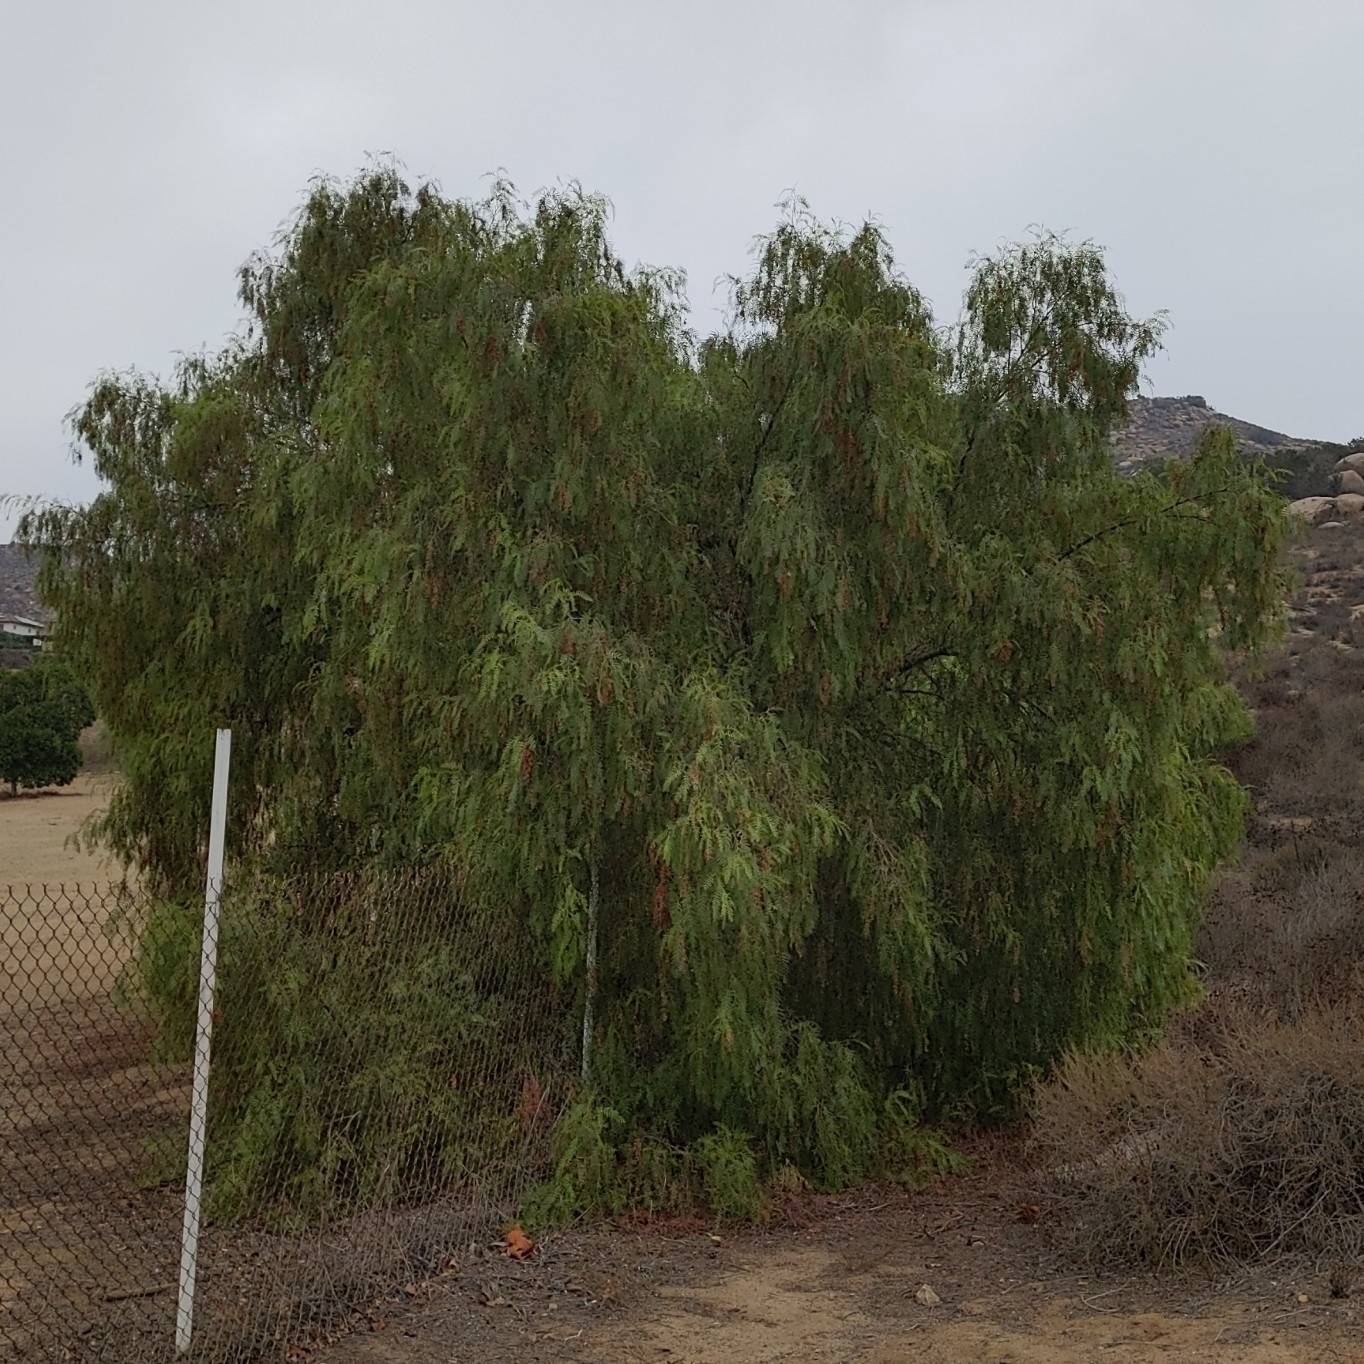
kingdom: Plantae
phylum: Tracheophyta
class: Magnoliopsida
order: Sapindales
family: Anacardiaceae
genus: Schinus
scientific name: Schinus molle
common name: Peruvian peppertree
